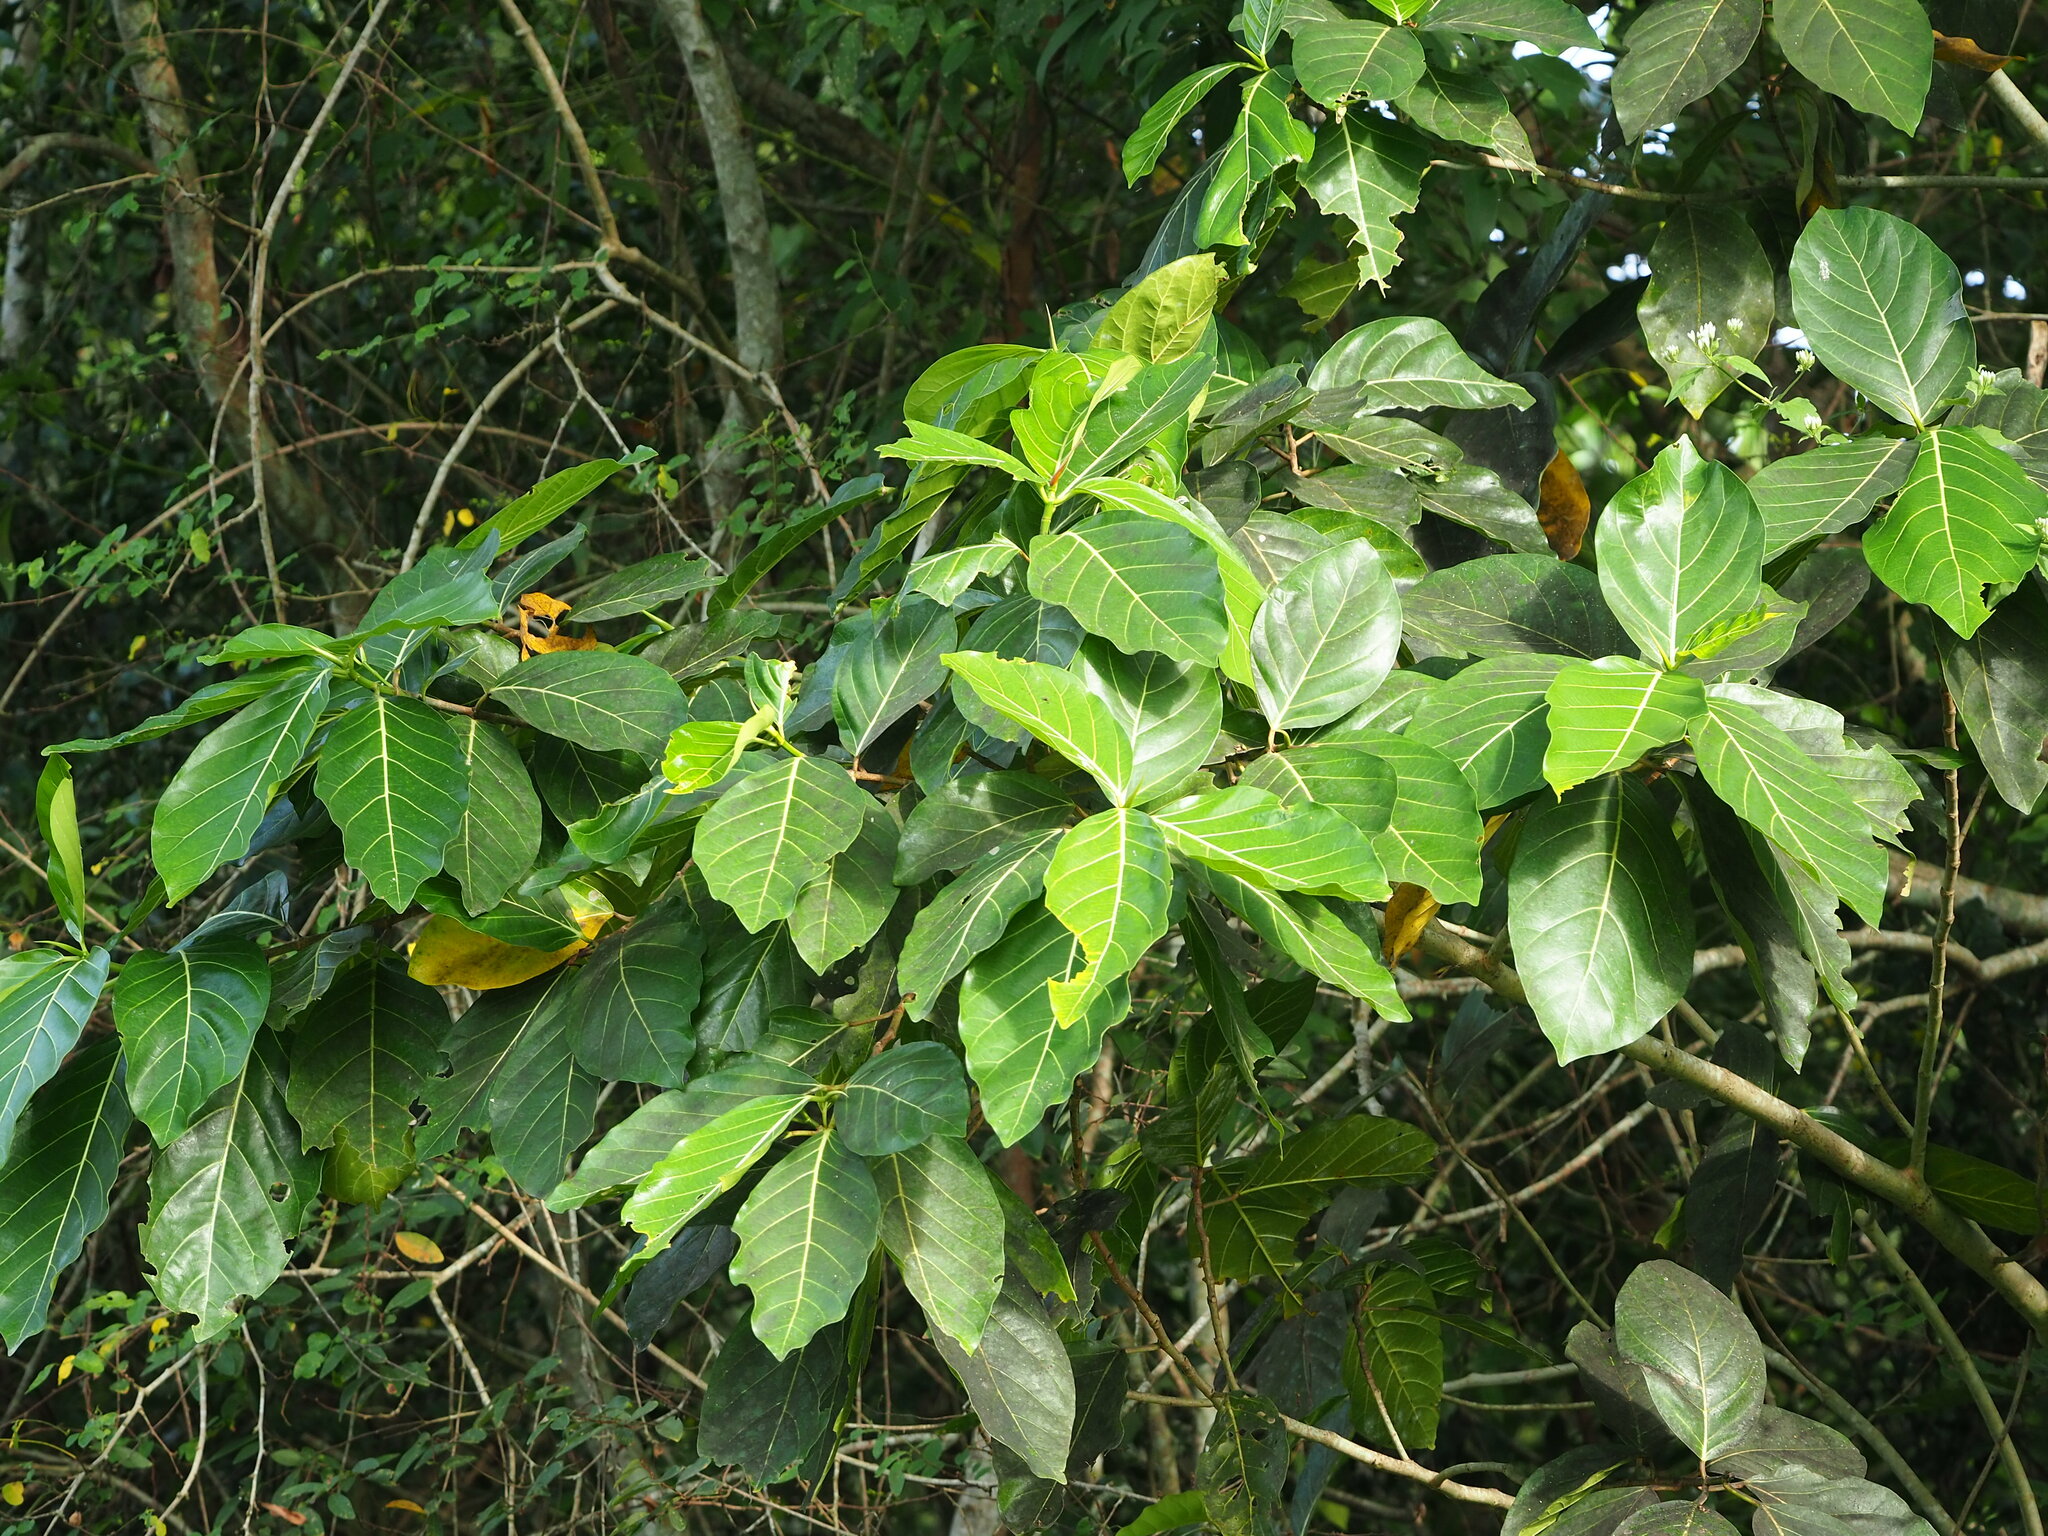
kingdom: Plantae
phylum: Tracheophyta
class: Magnoliopsida
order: Rosales
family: Moraceae
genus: Ficus
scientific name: Ficus septica
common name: Septic fig
